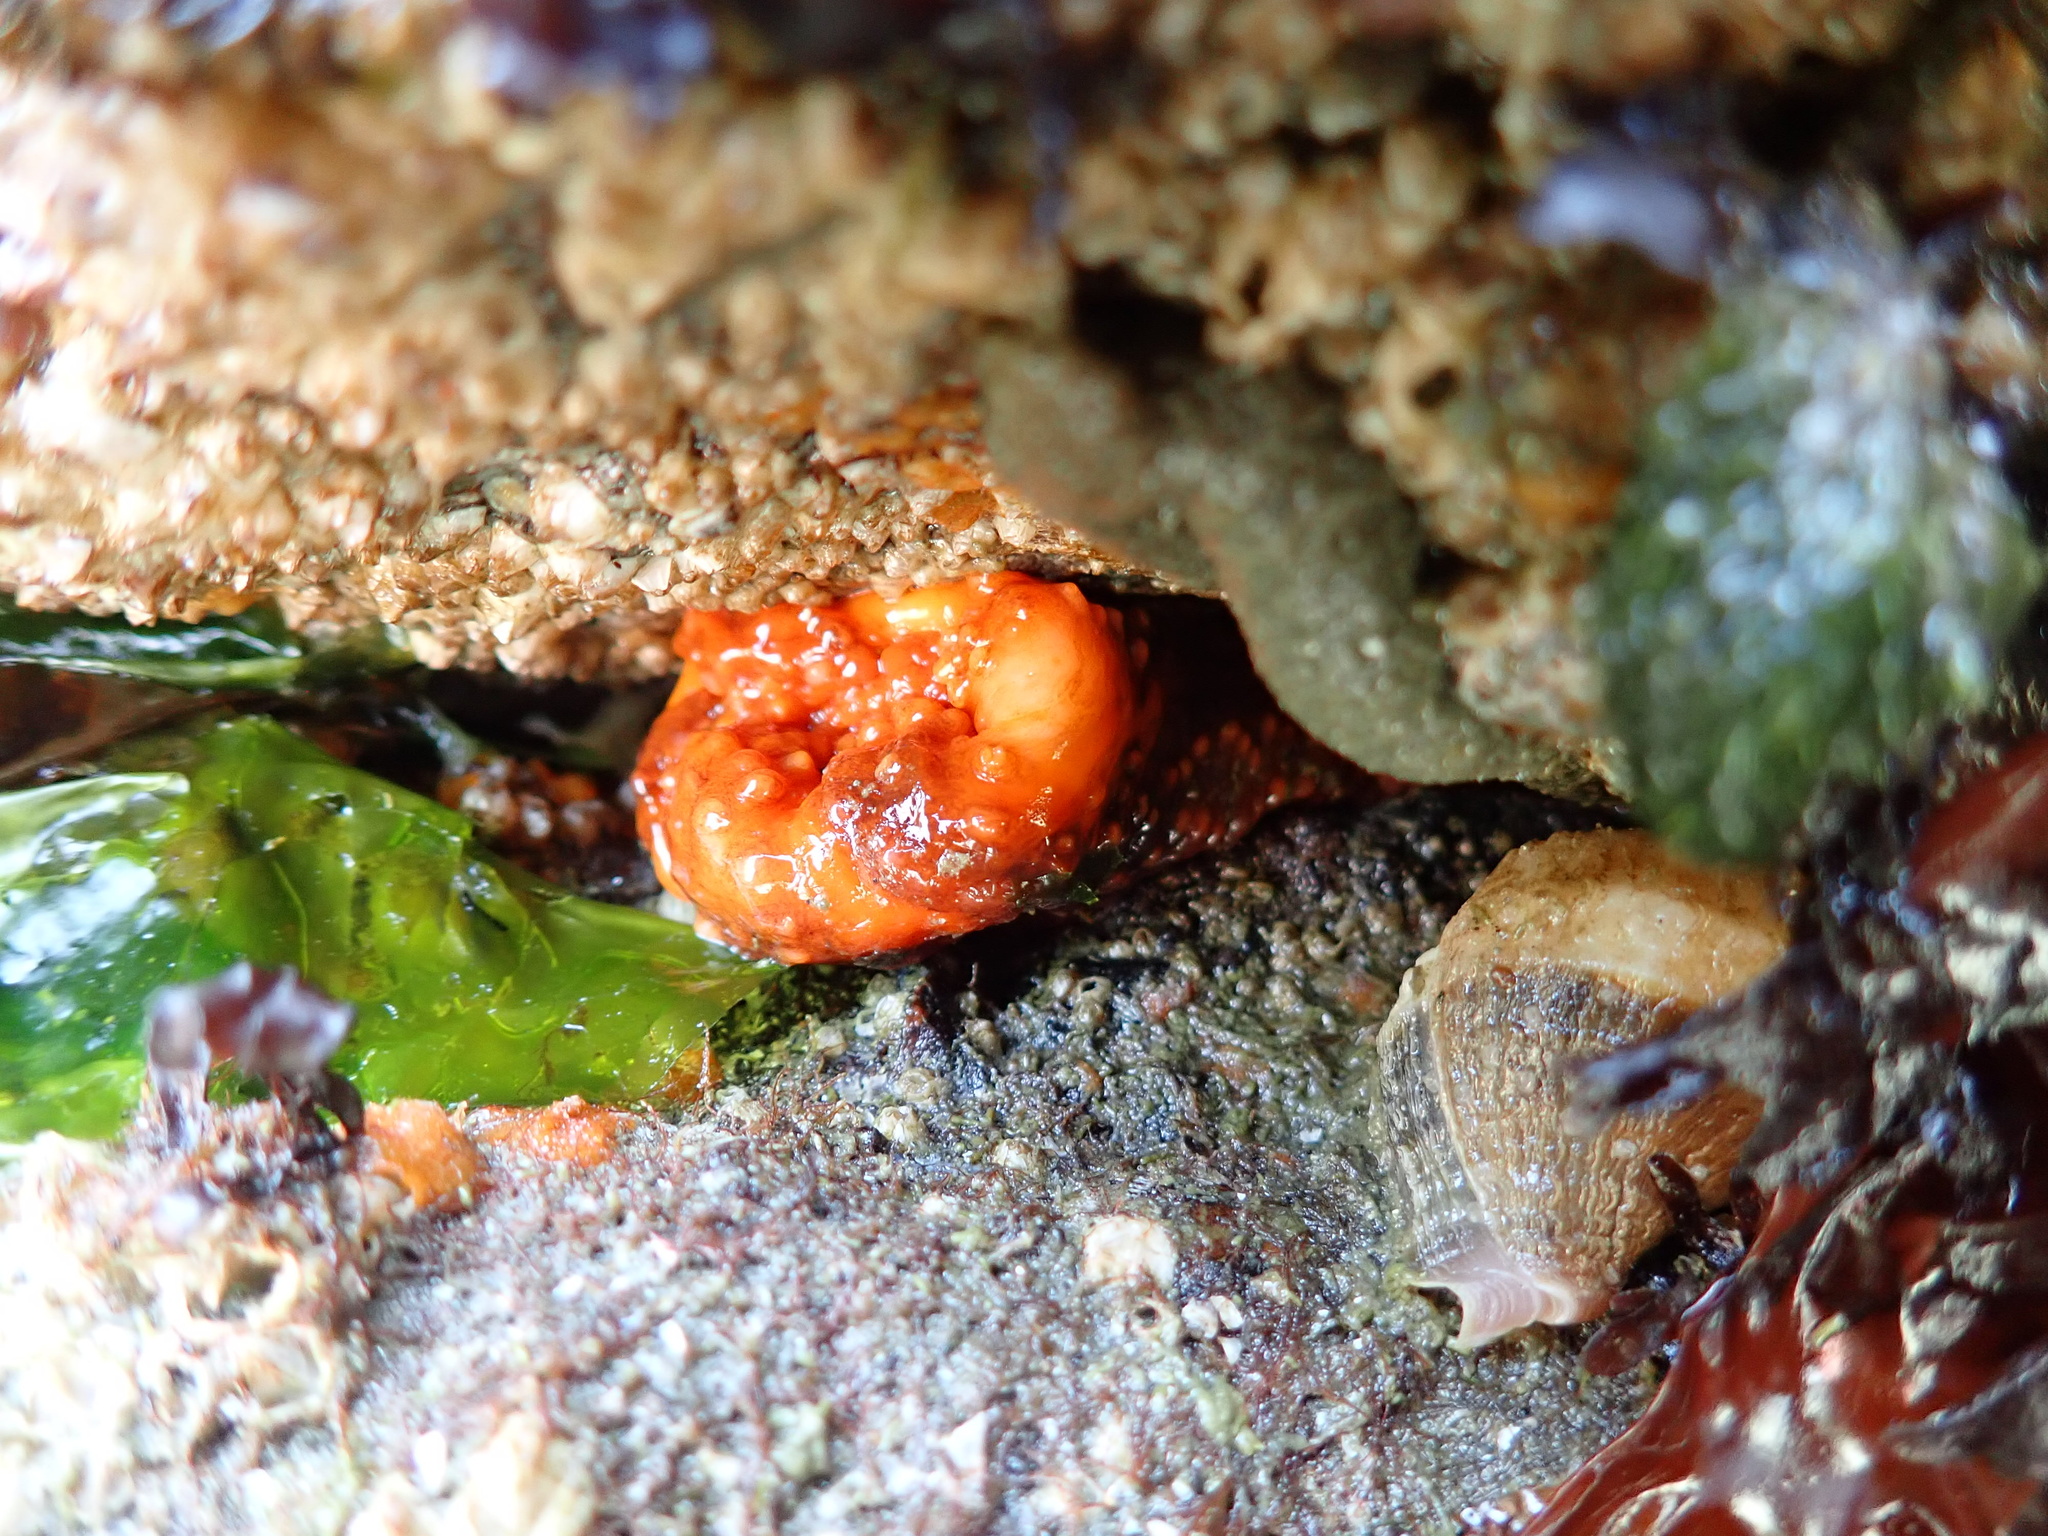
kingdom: Animalia
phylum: Echinodermata
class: Holothuroidea
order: Dendrochirotida
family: Cucumariidae
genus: Cucumaria
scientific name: Cucumaria miniata
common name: Orange sea cucumber
